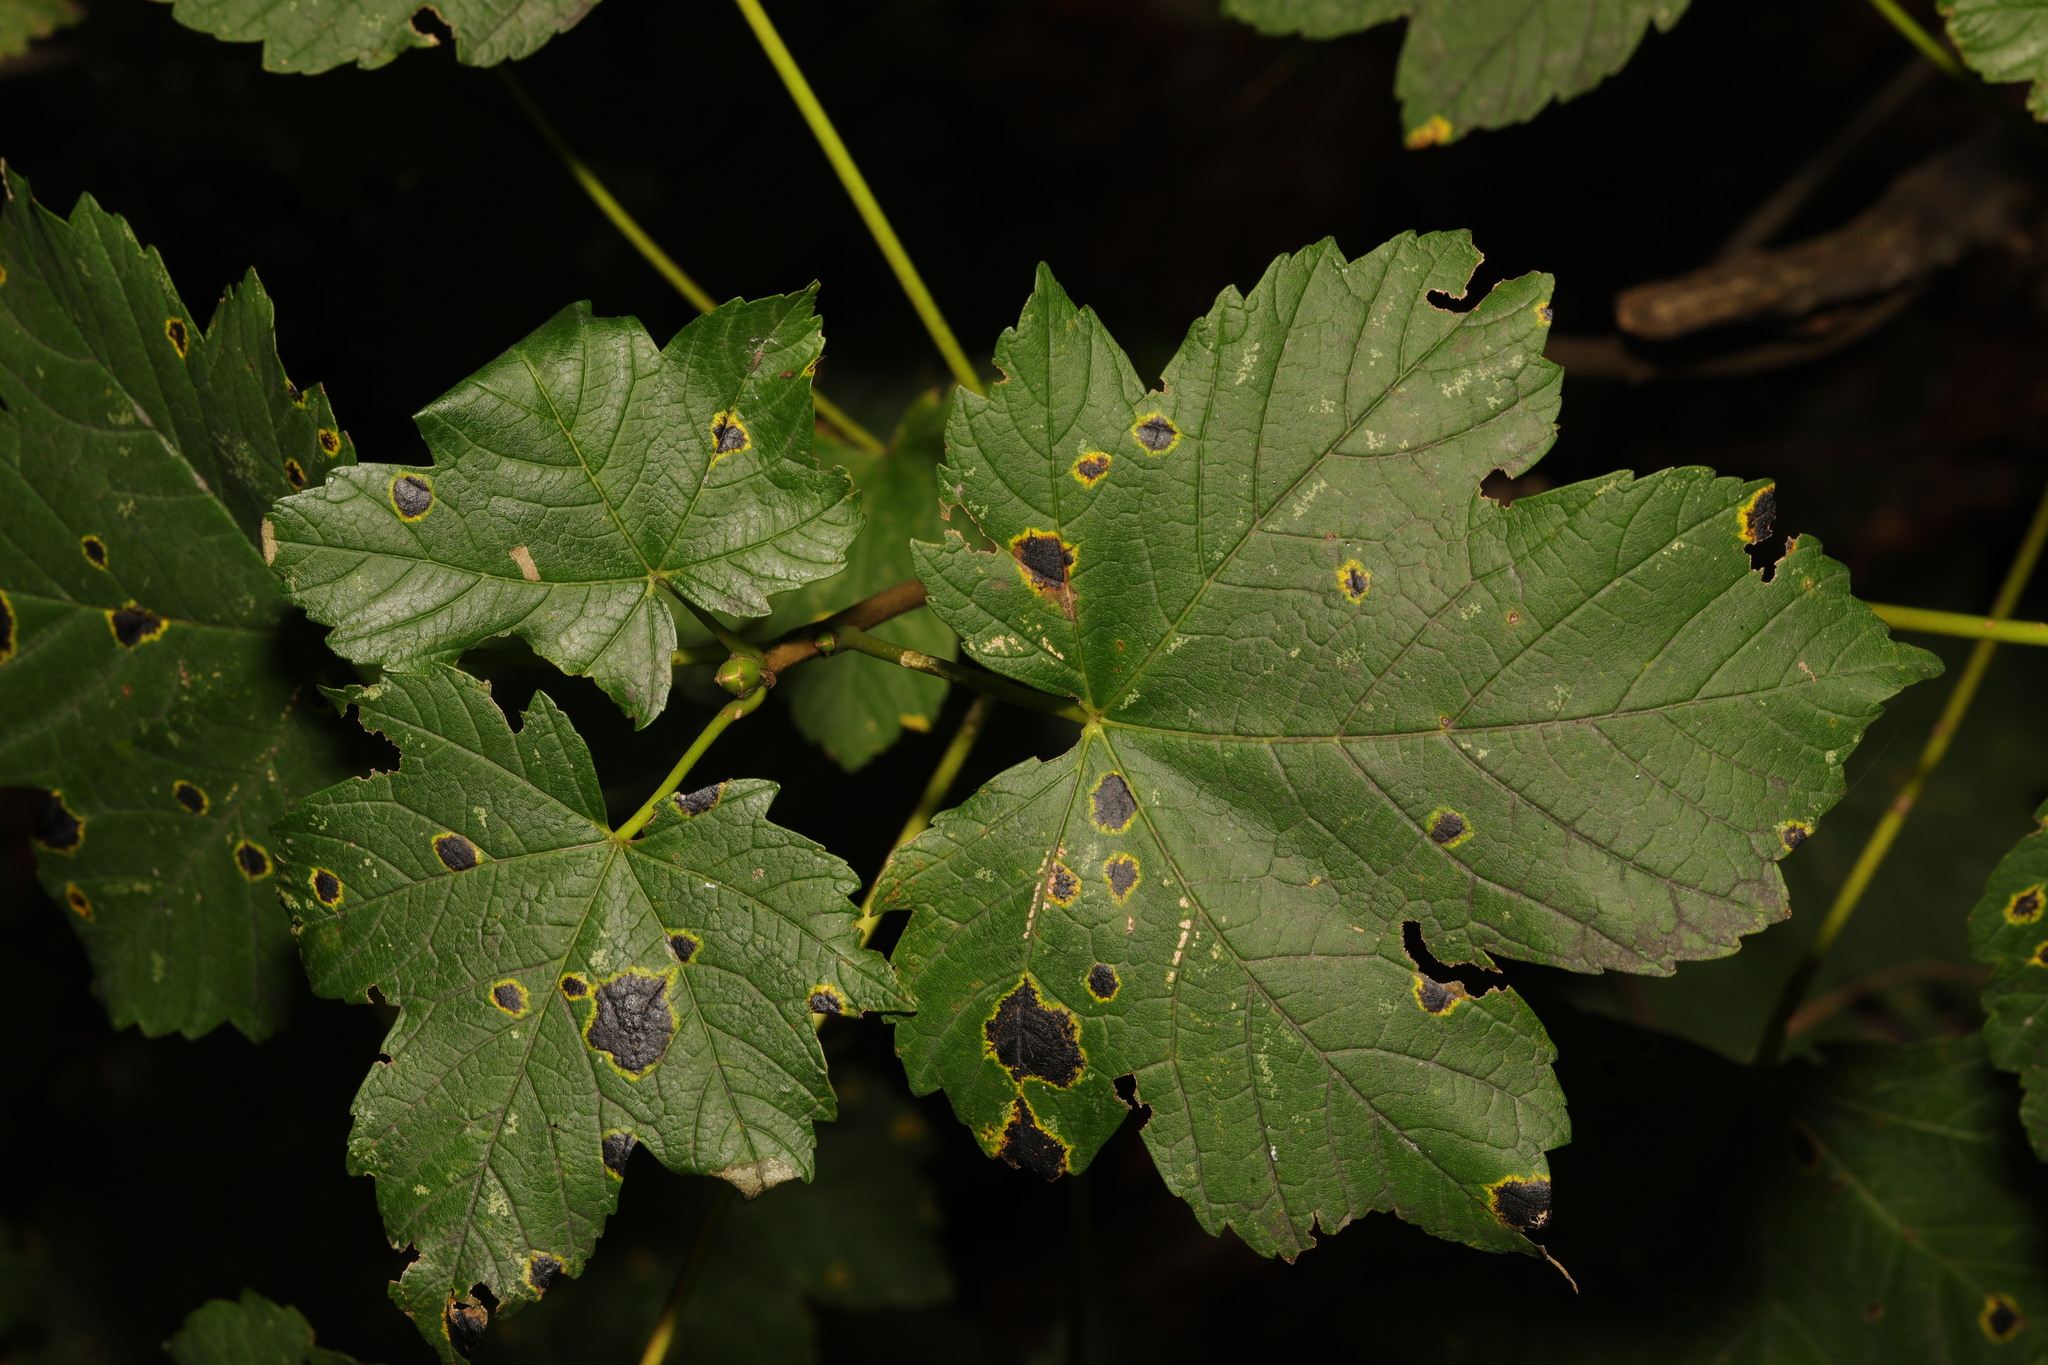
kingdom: Plantae
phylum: Tracheophyta
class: Magnoliopsida
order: Sapindales
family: Sapindaceae
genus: Acer
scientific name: Acer pseudoplatanus
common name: Sycamore
